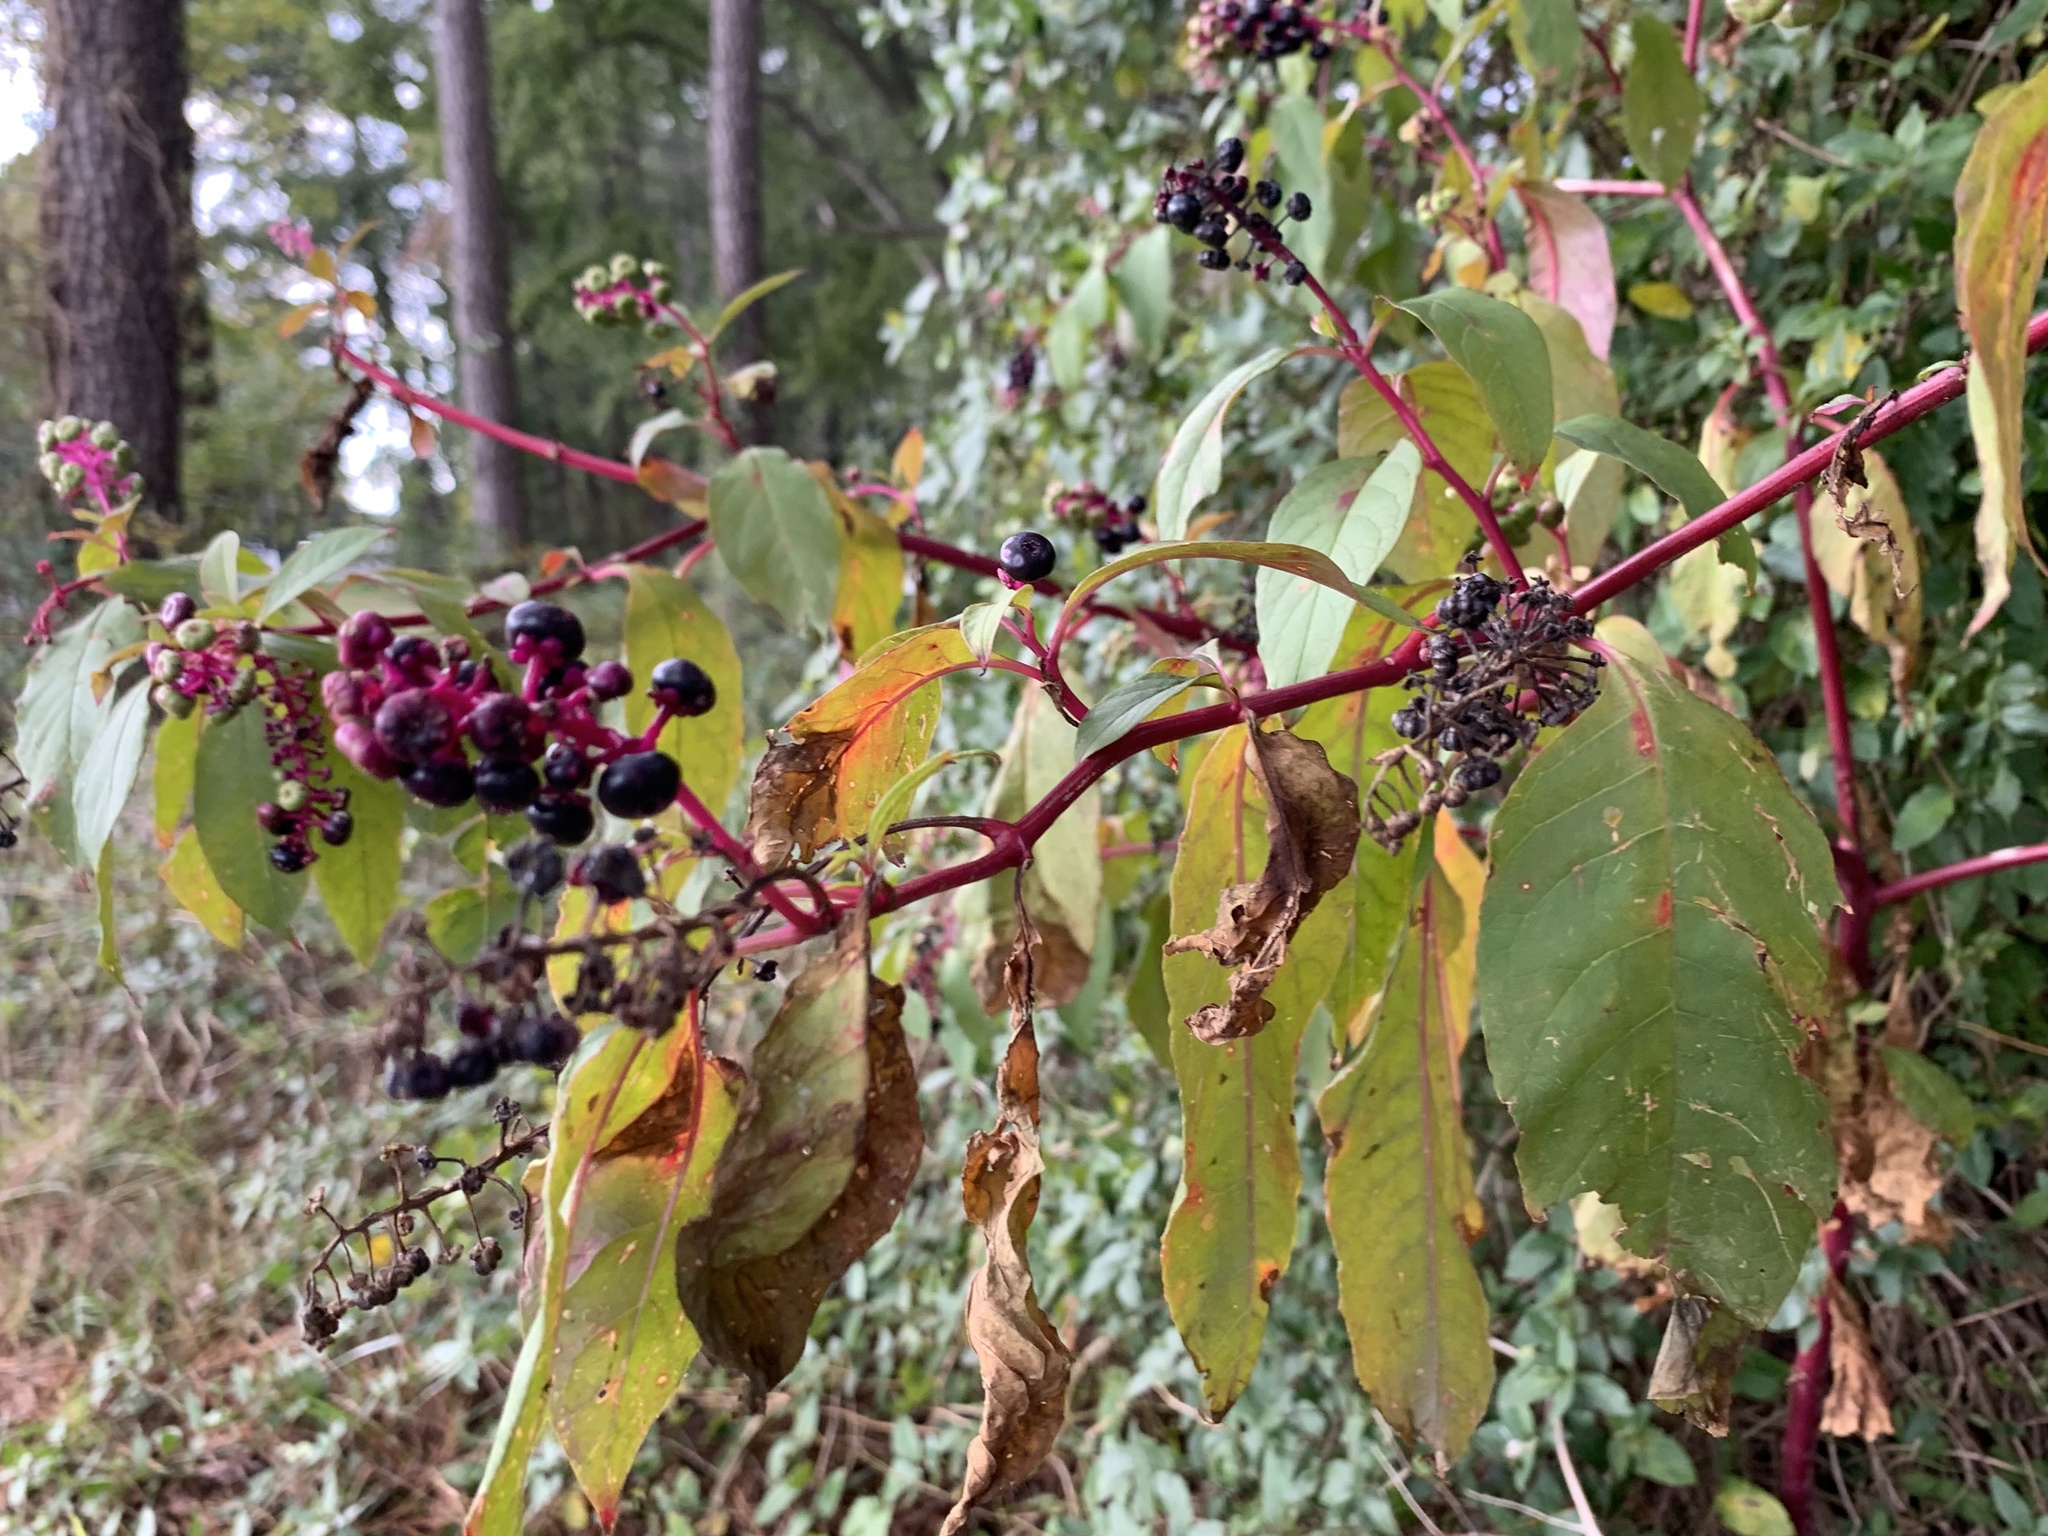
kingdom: Plantae
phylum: Tracheophyta
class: Magnoliopsida
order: Caryophyllales
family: Phytolaccaceae
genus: Phytolacca
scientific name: Phytolacca americana
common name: American pokeweed
